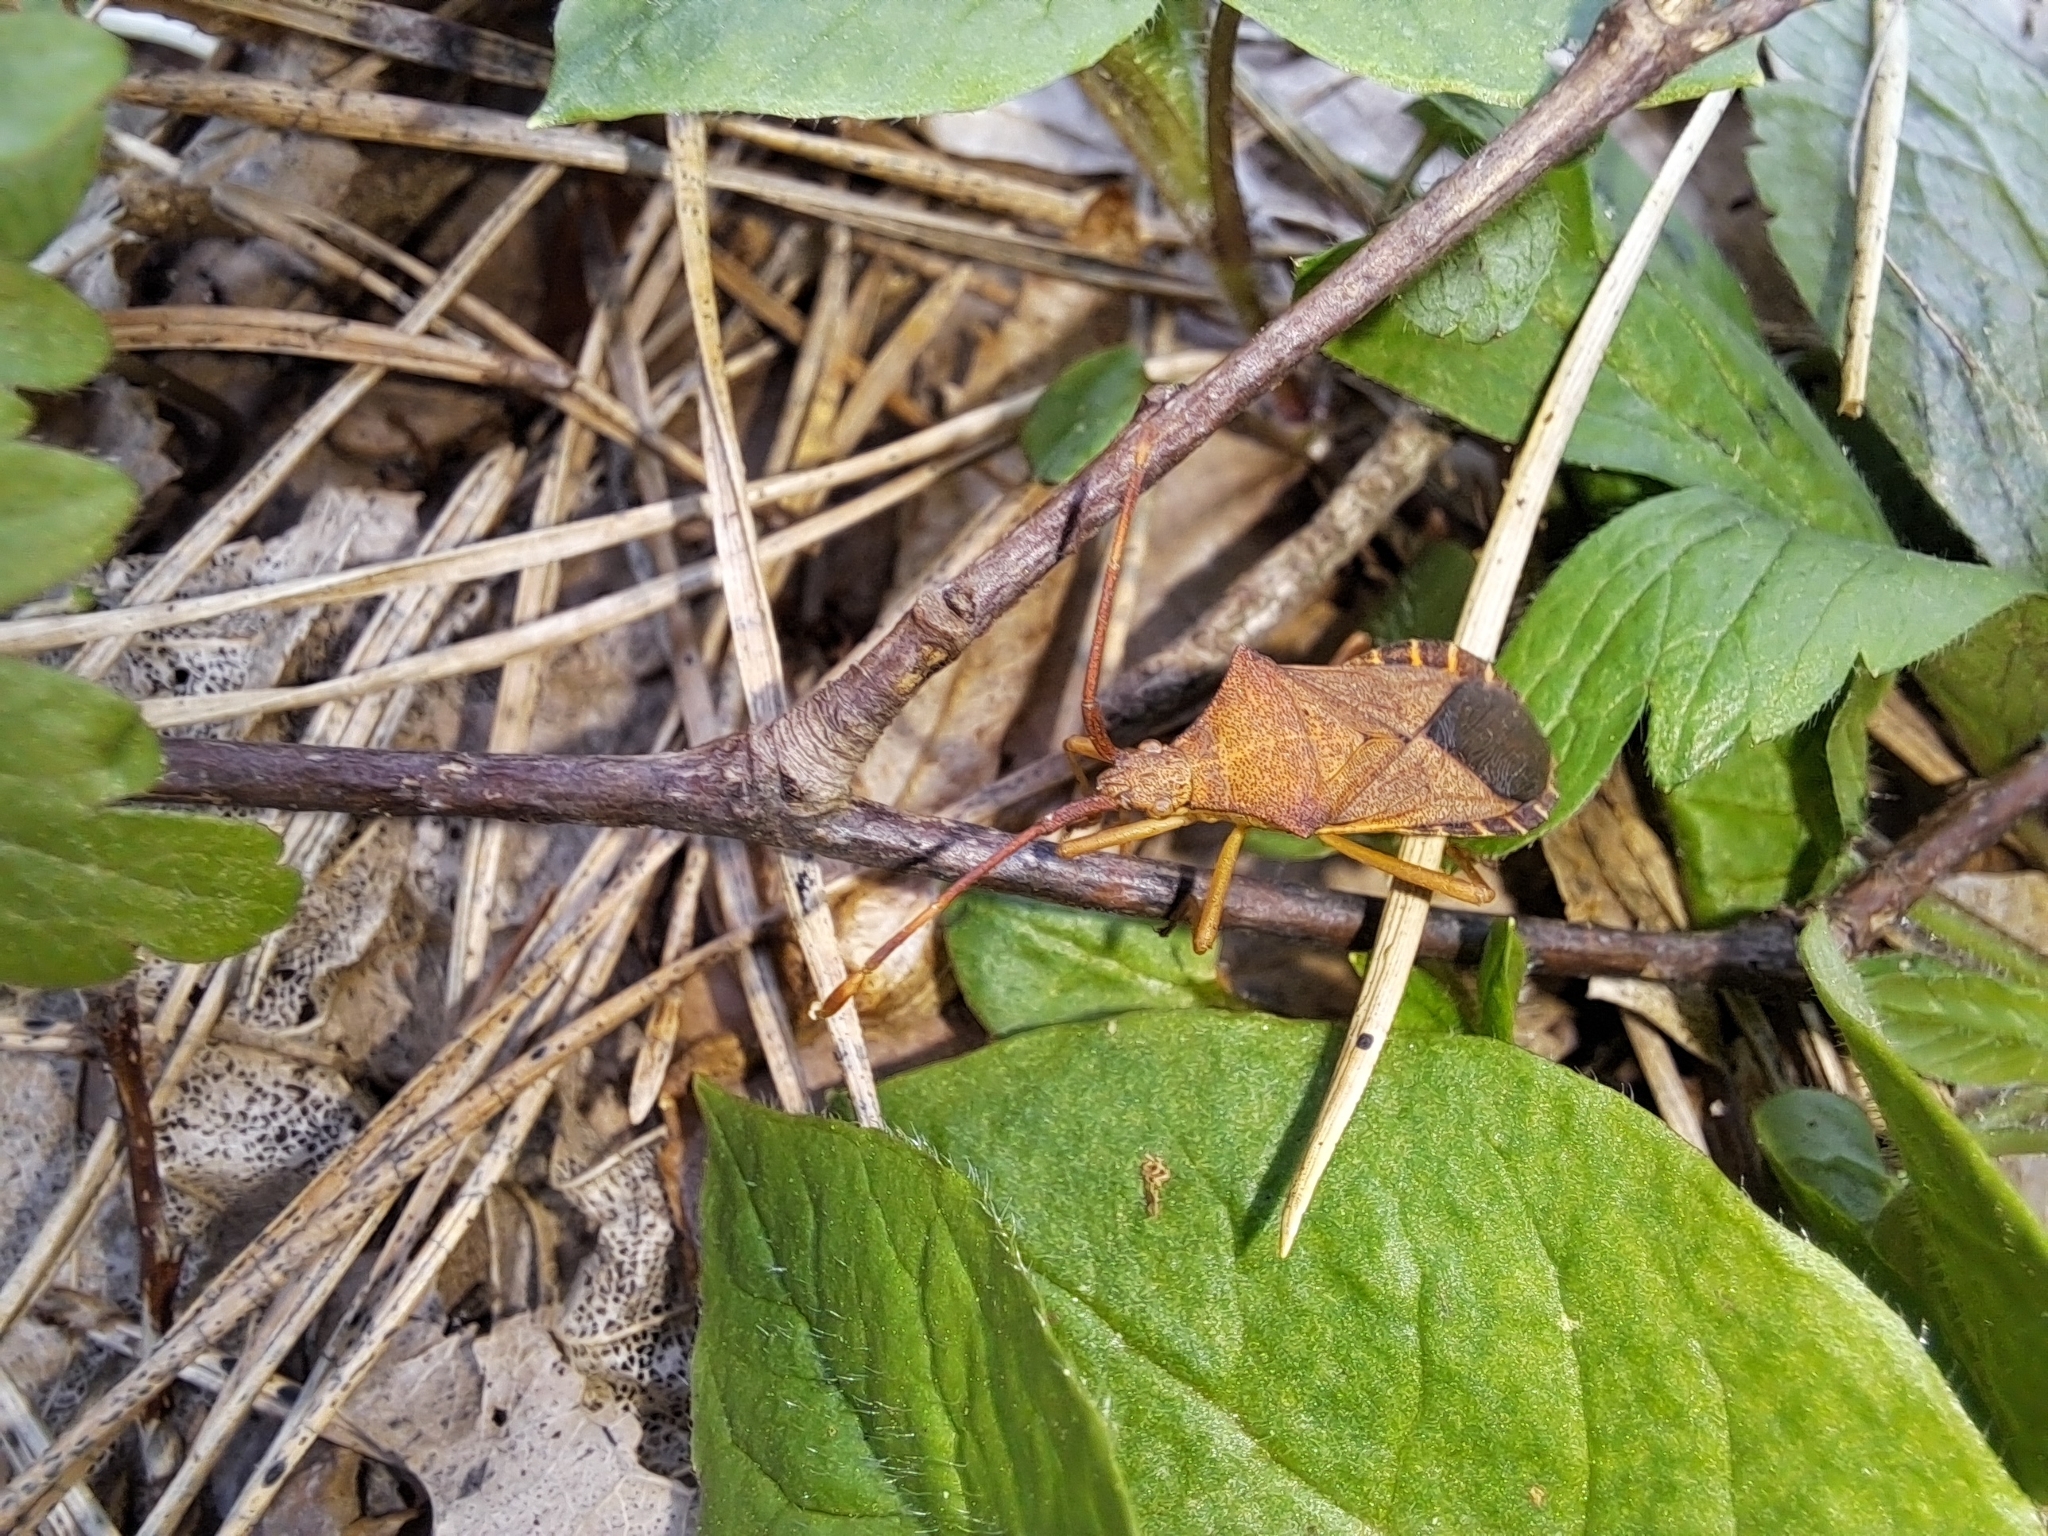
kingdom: Animalia
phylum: Arthropoda
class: Insecta
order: Hemiptera
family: Coreidae
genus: Gonocerus
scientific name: Gonocerus acuteangulatus
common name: Box bug
